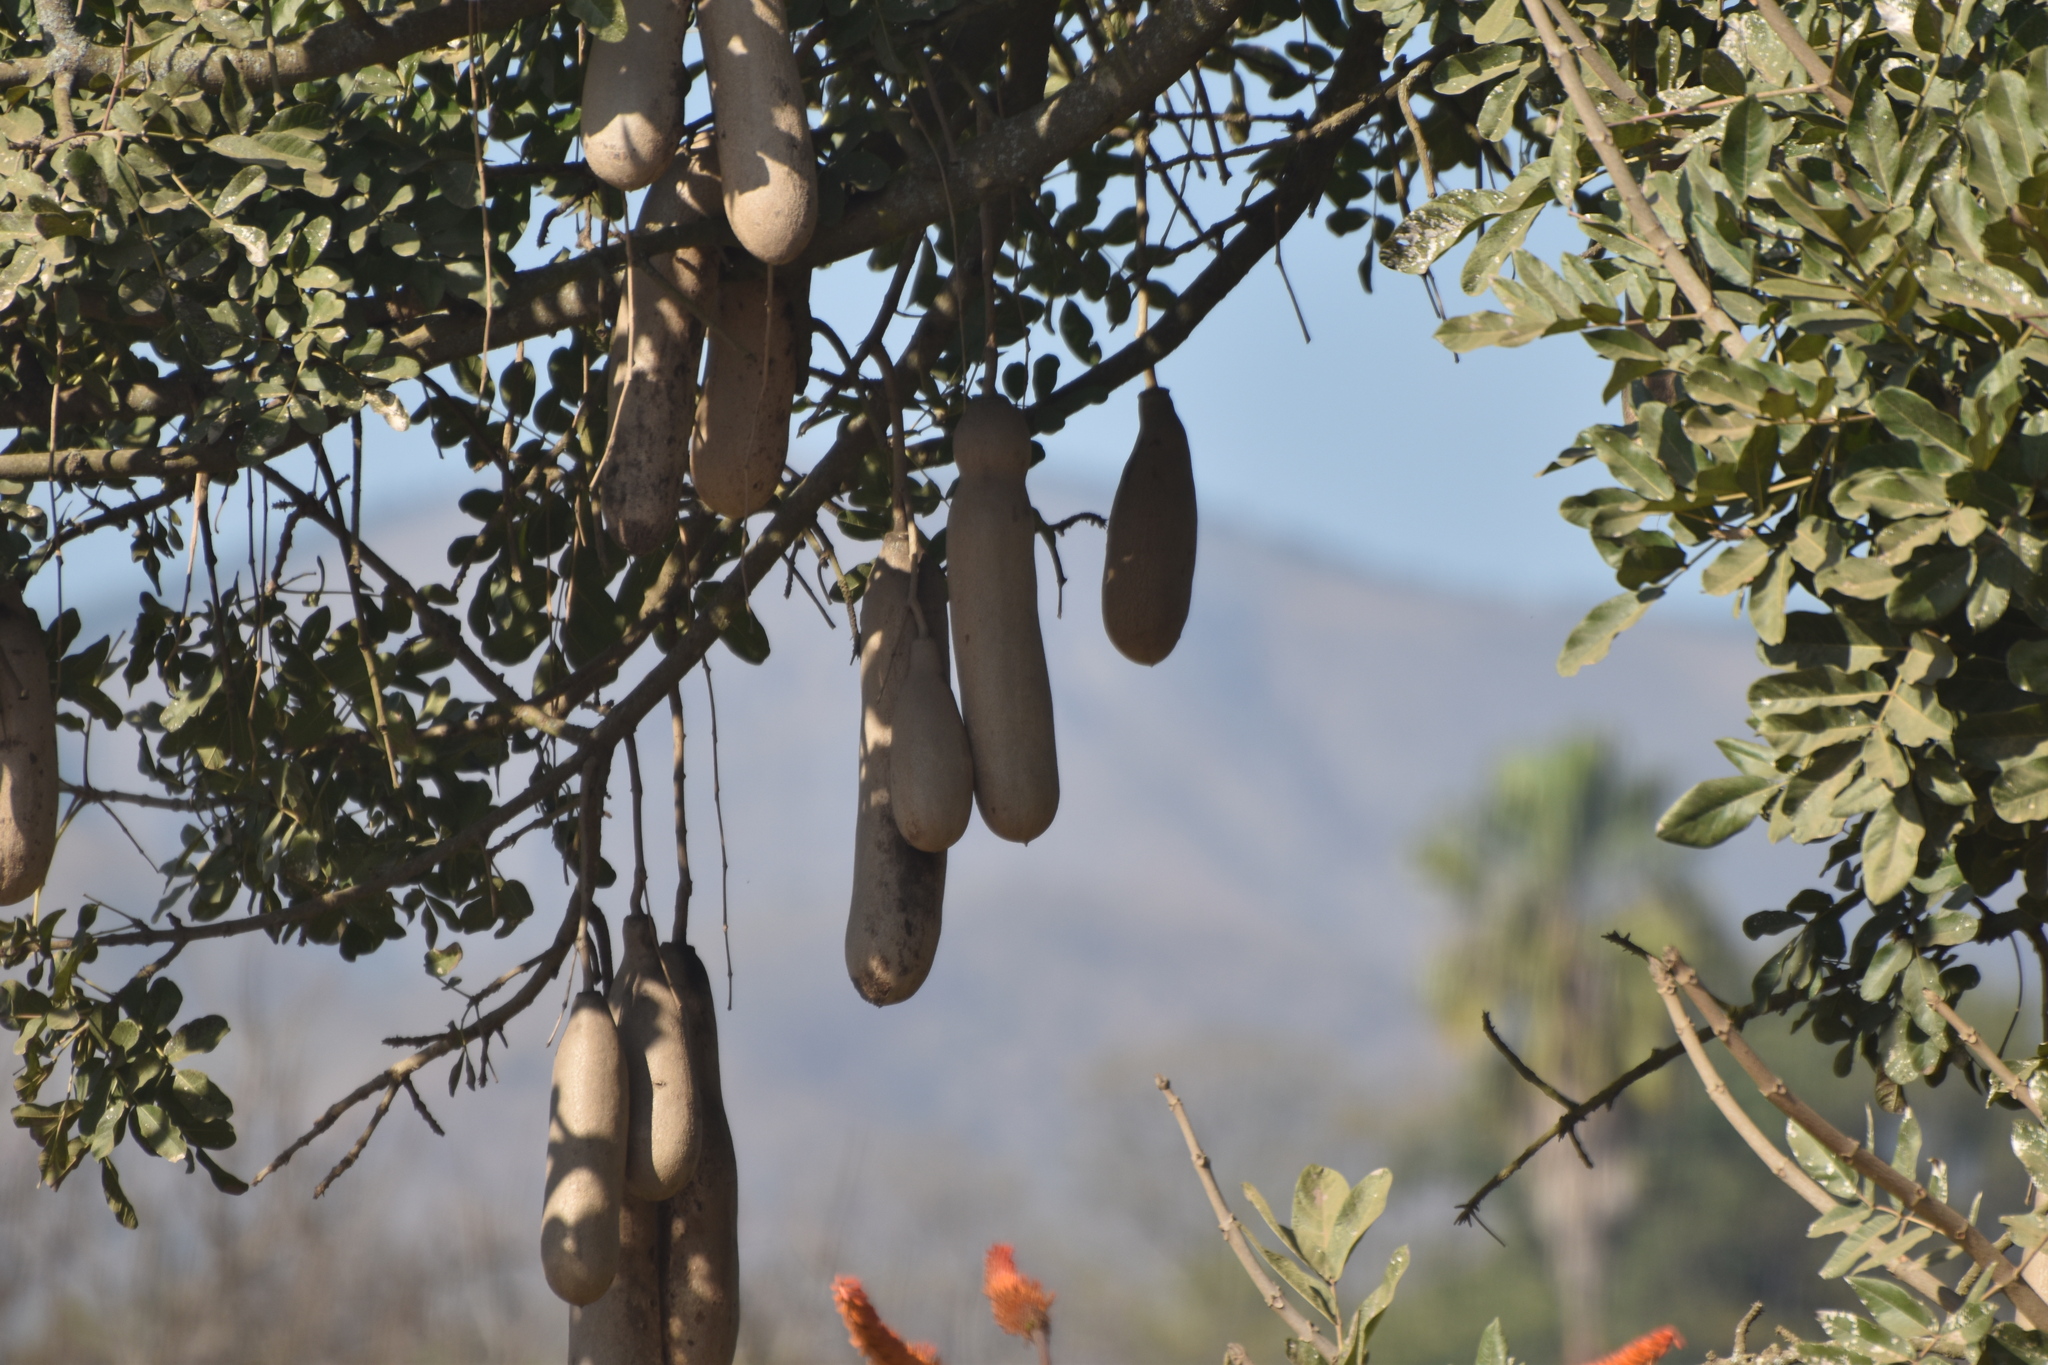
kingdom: Plantae
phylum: Tracheophyta
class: Magnoliopsida
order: Lamiales
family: Bignoniaceae
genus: Kigelia
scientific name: Kigelia africana
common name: Sausage tree
